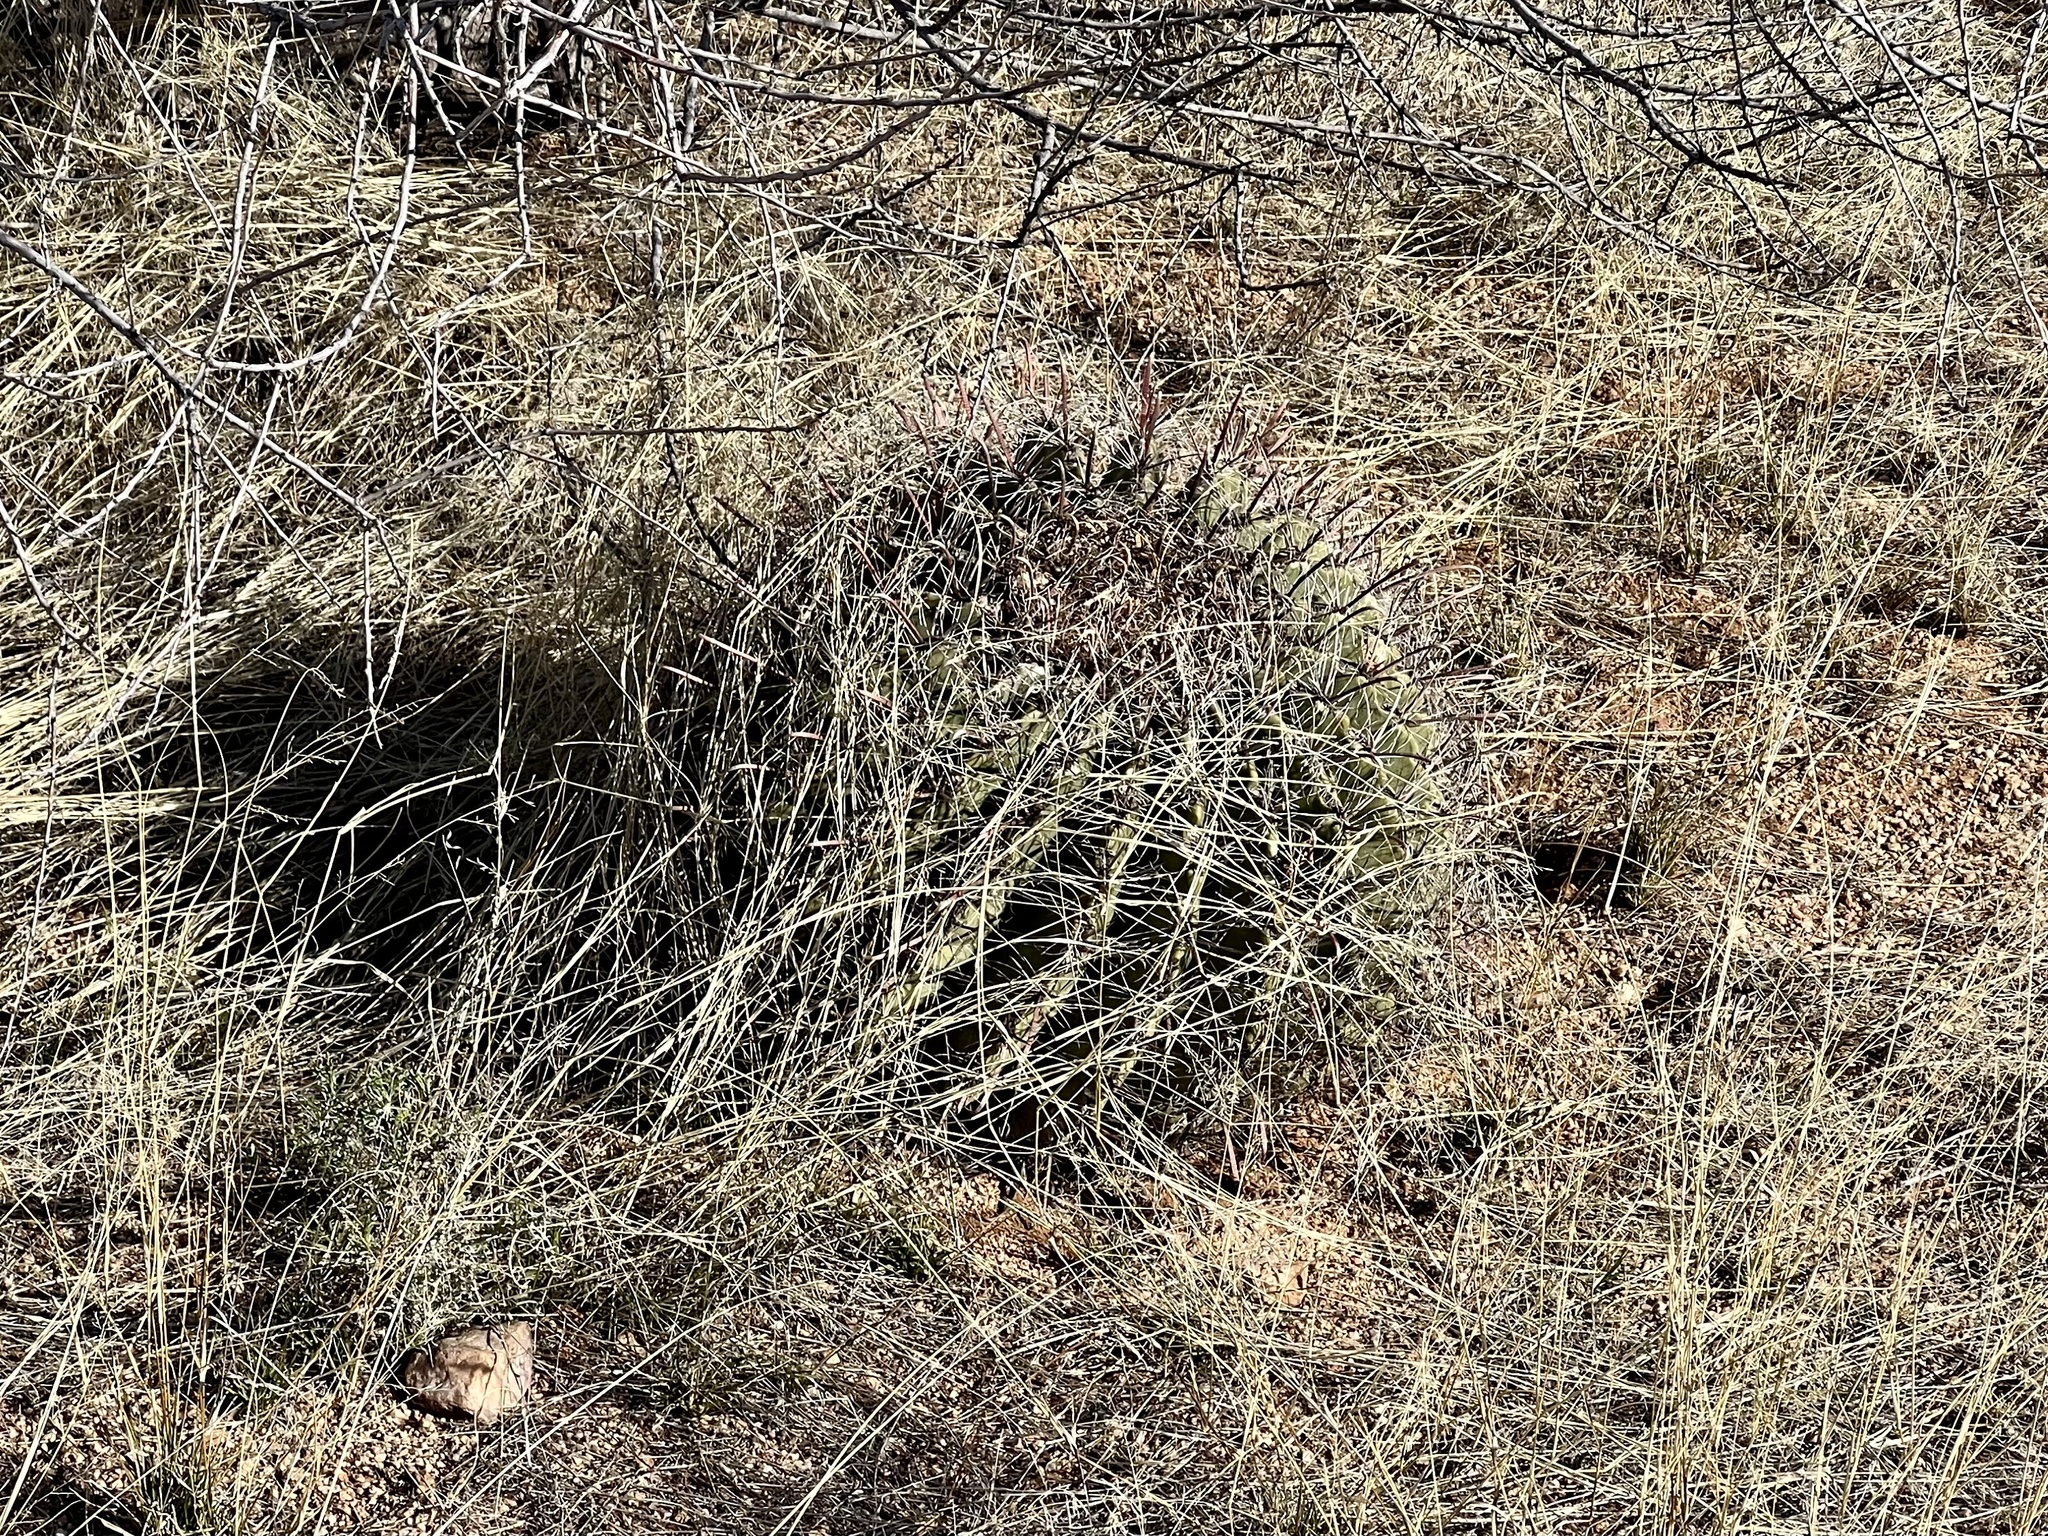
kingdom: Plantae
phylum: Tracheophyta
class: Magnoliopsida
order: Caryophyllales
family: Cactaceae
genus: Ferocactus
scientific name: Ferocactus wislizeni
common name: Candy barrel cactus
